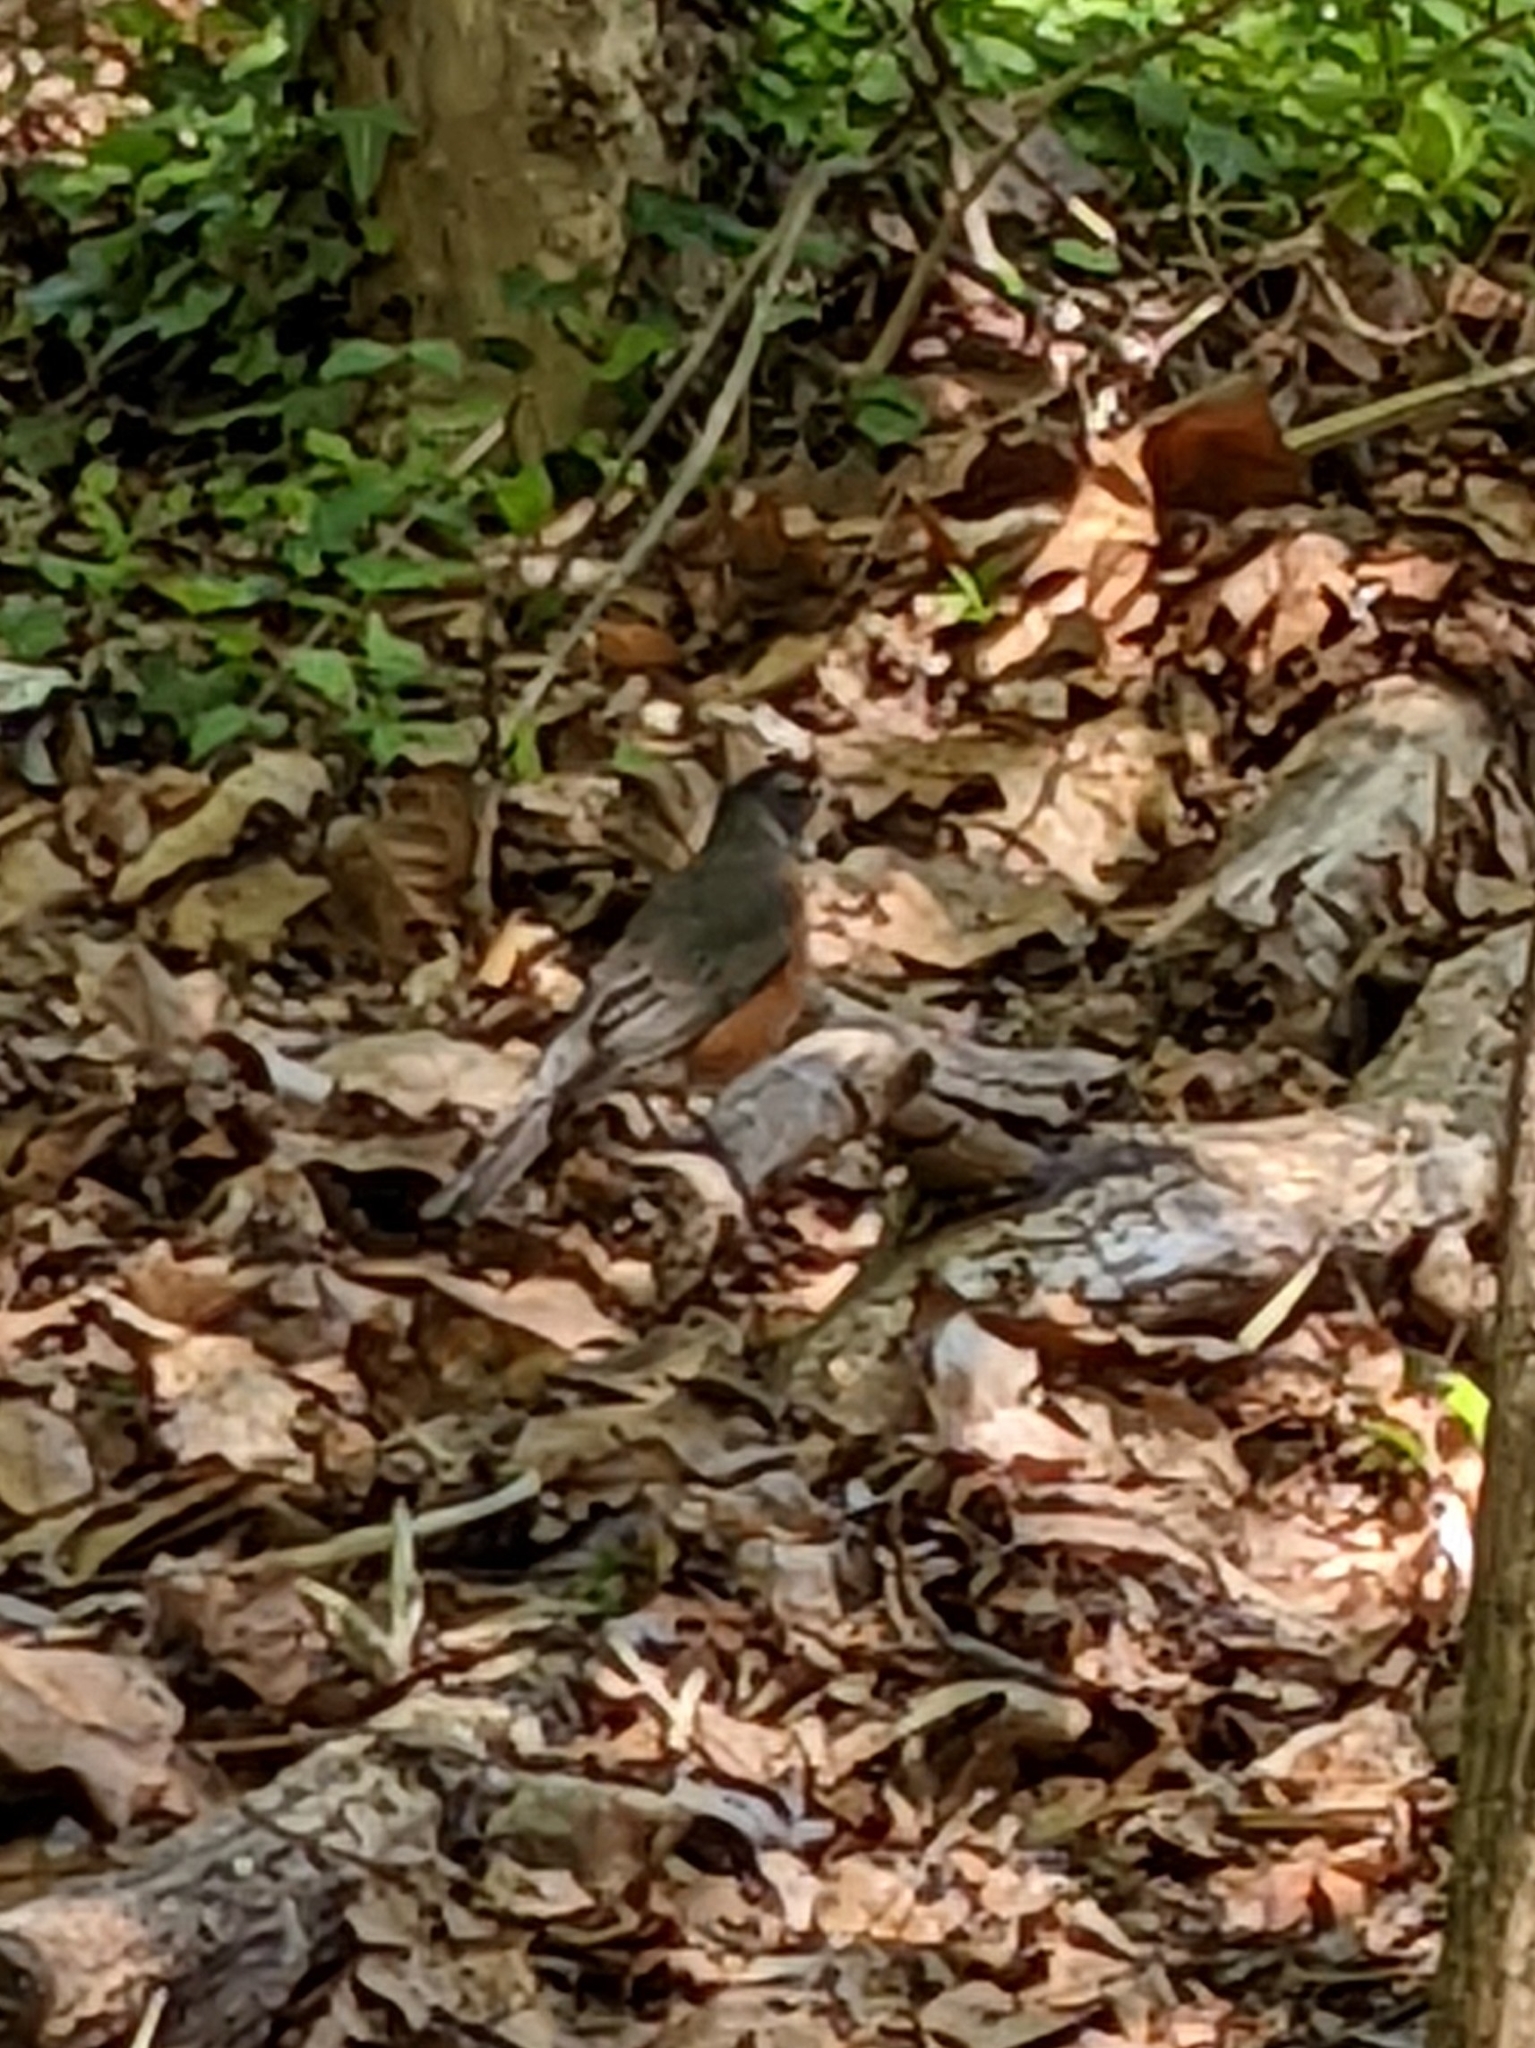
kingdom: Animalia
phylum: Chordata
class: Aves
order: Passeriformes
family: Turdidae
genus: Turdus
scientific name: Turdus migratorius
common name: American robin
